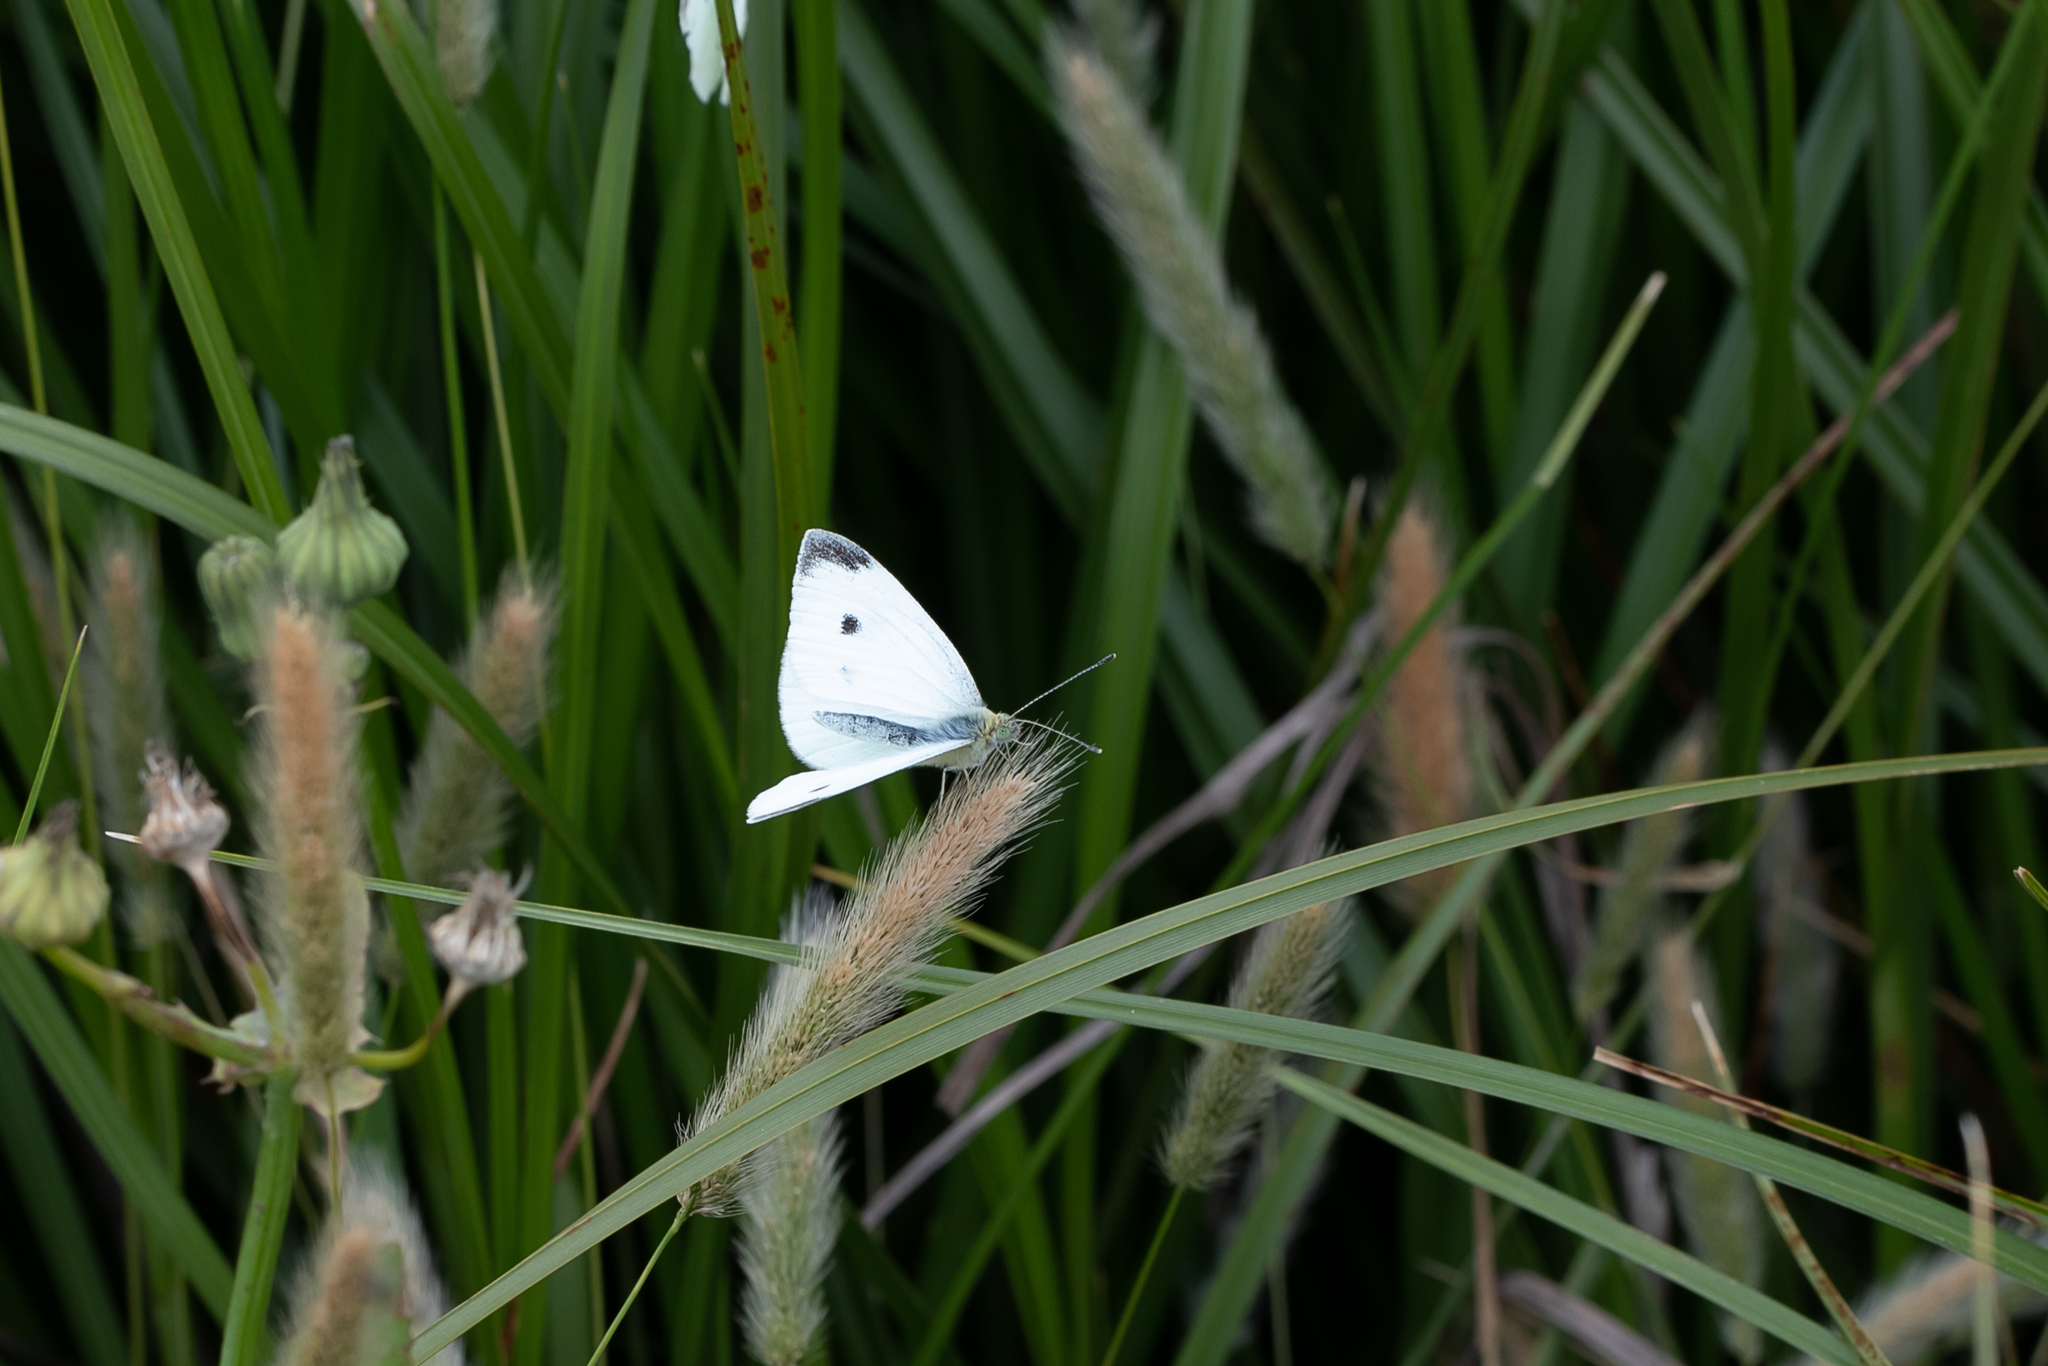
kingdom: Animalia
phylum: Arthropoda
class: Insecta
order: Lepidoptera
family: Pieridae
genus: Pieris
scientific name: Pieris rapae
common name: Small white
